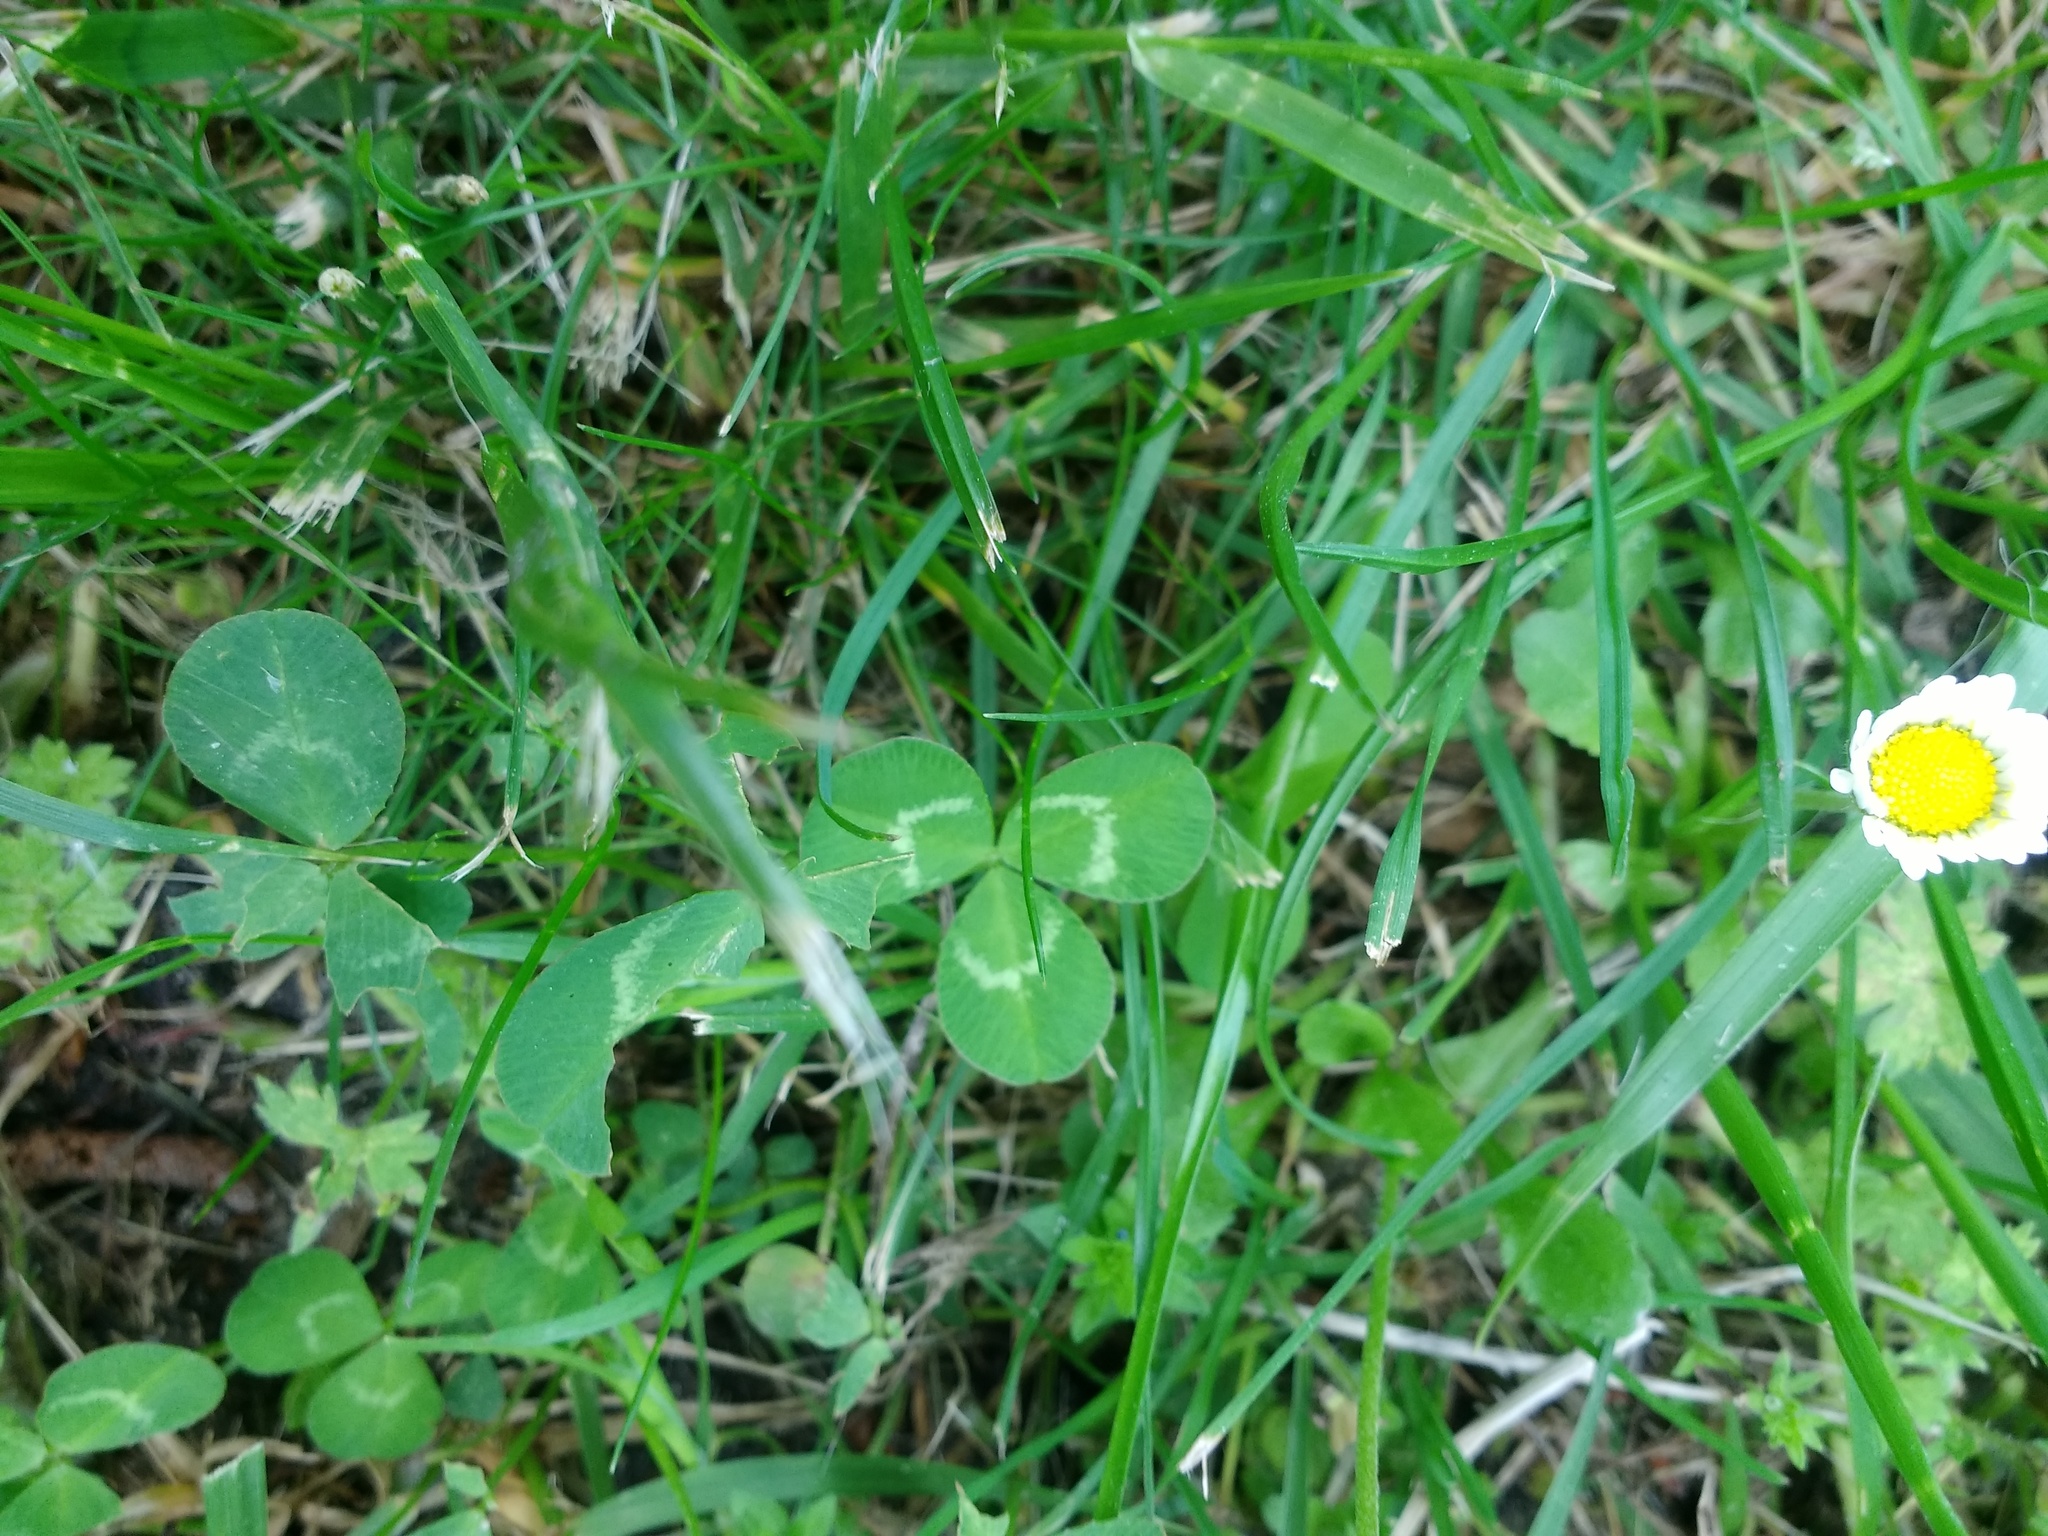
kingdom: Plantae
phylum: Tracheophyta
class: Magnoliopsida
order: Fabales
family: Fabaceae
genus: Trifolium
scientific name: Trifolium repens
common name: White clover
